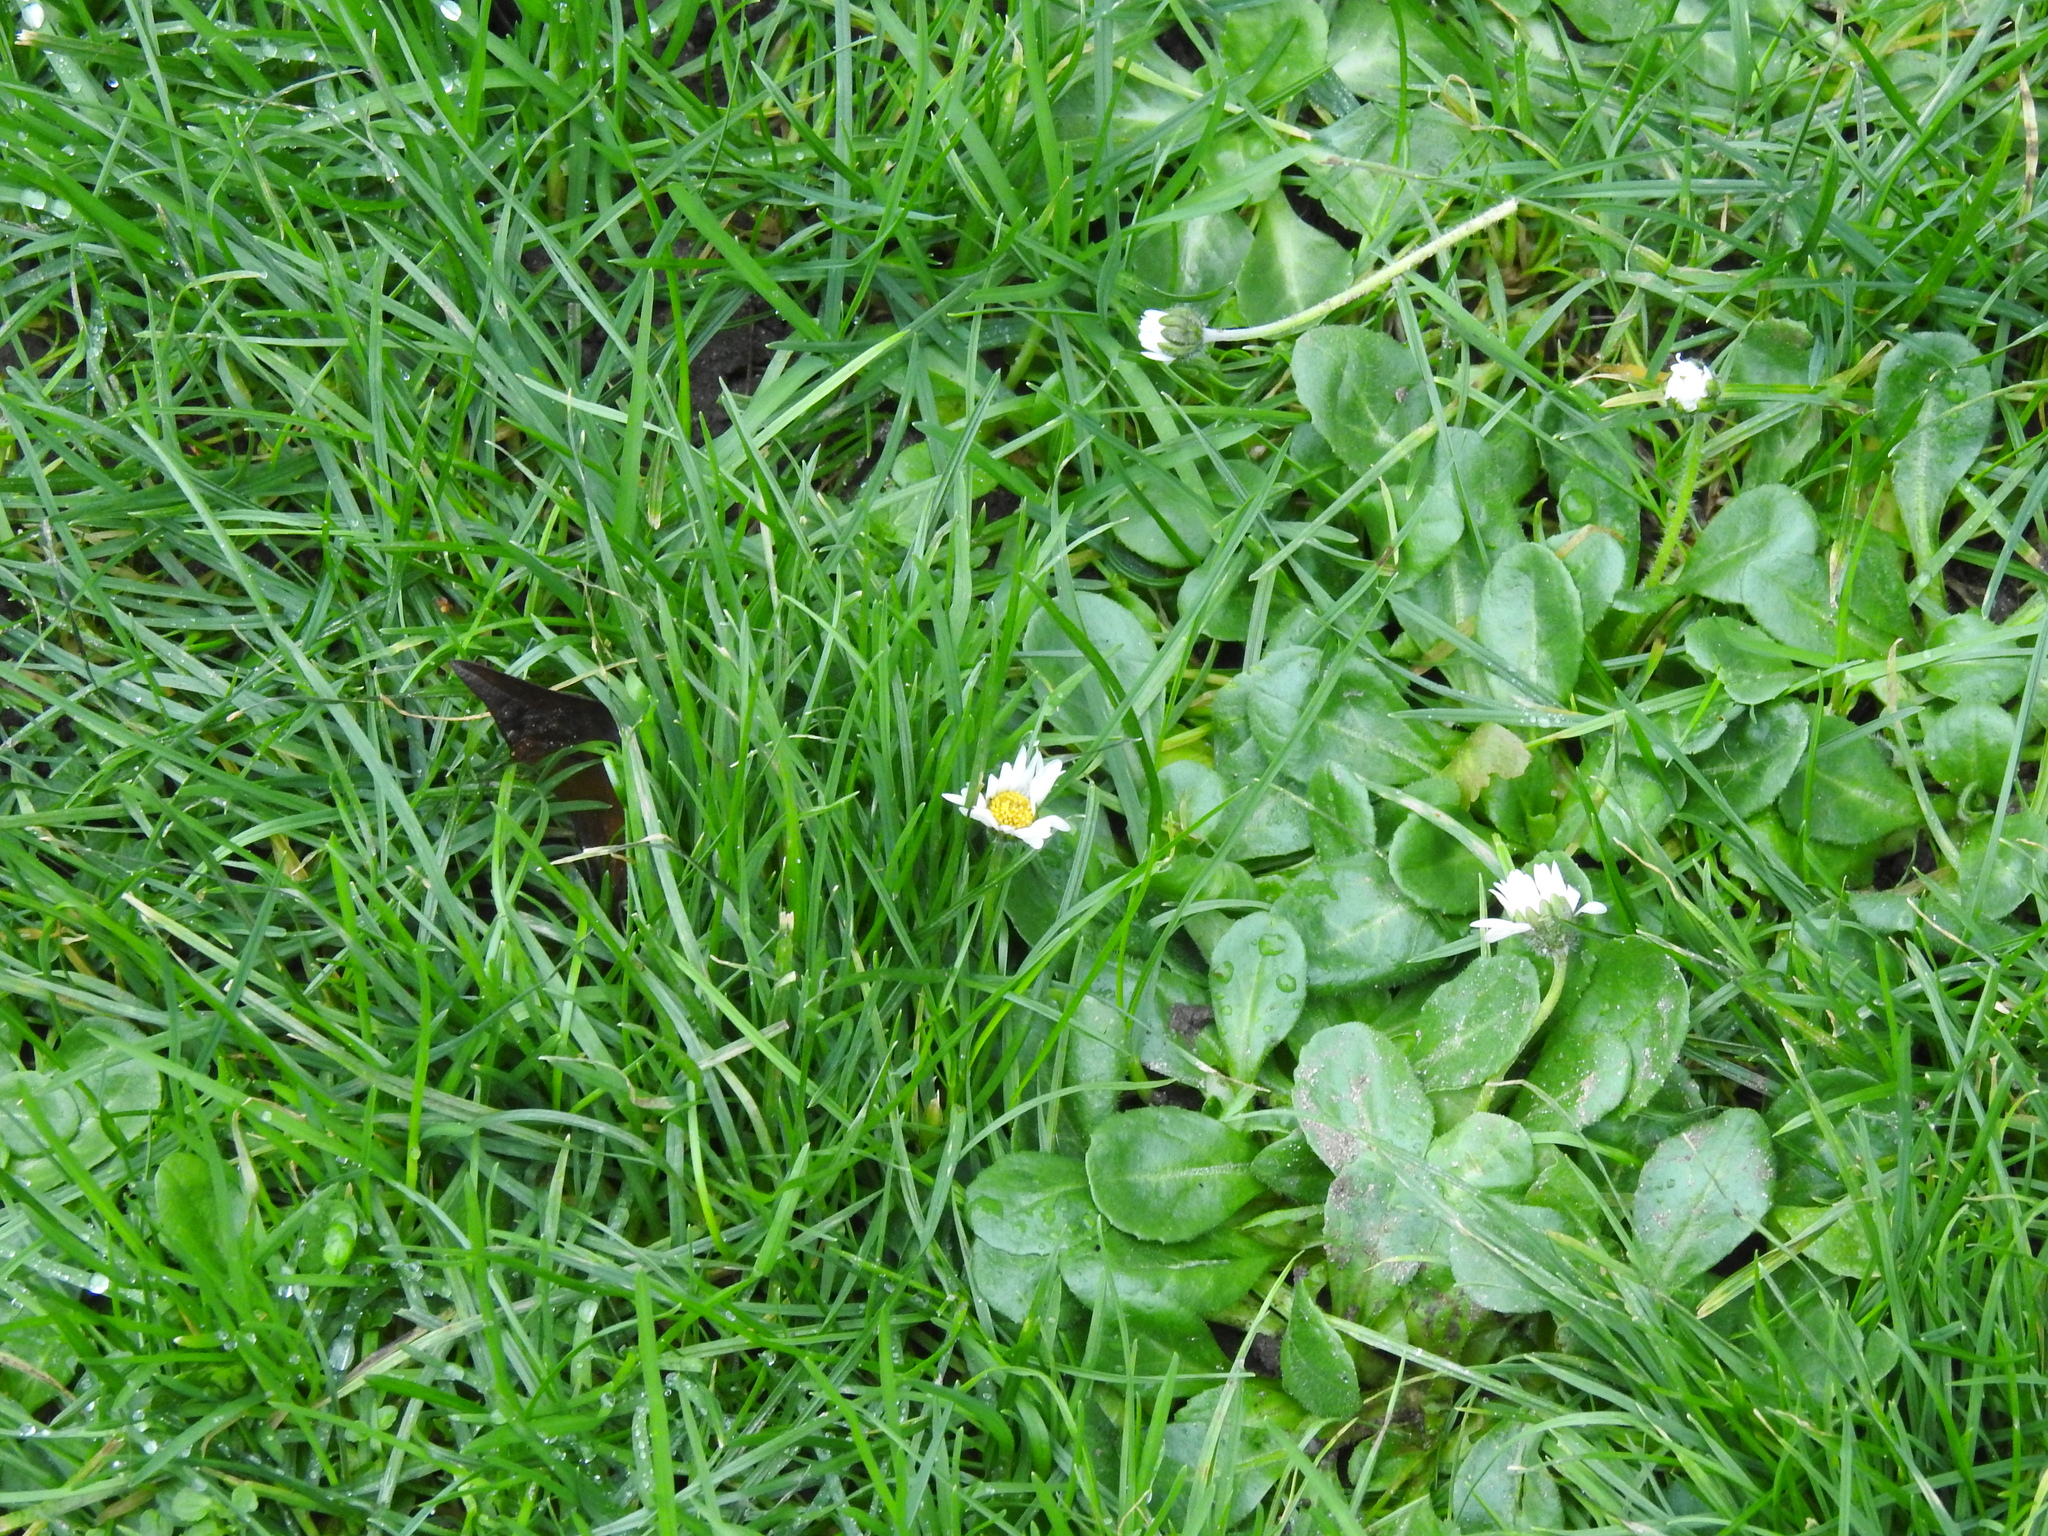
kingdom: Plantae
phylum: Tracheophyta
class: Magnoliopsida
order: Asterales
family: Asteraceae
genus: Bellis
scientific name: Bellis perennis
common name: Lawndaisy
